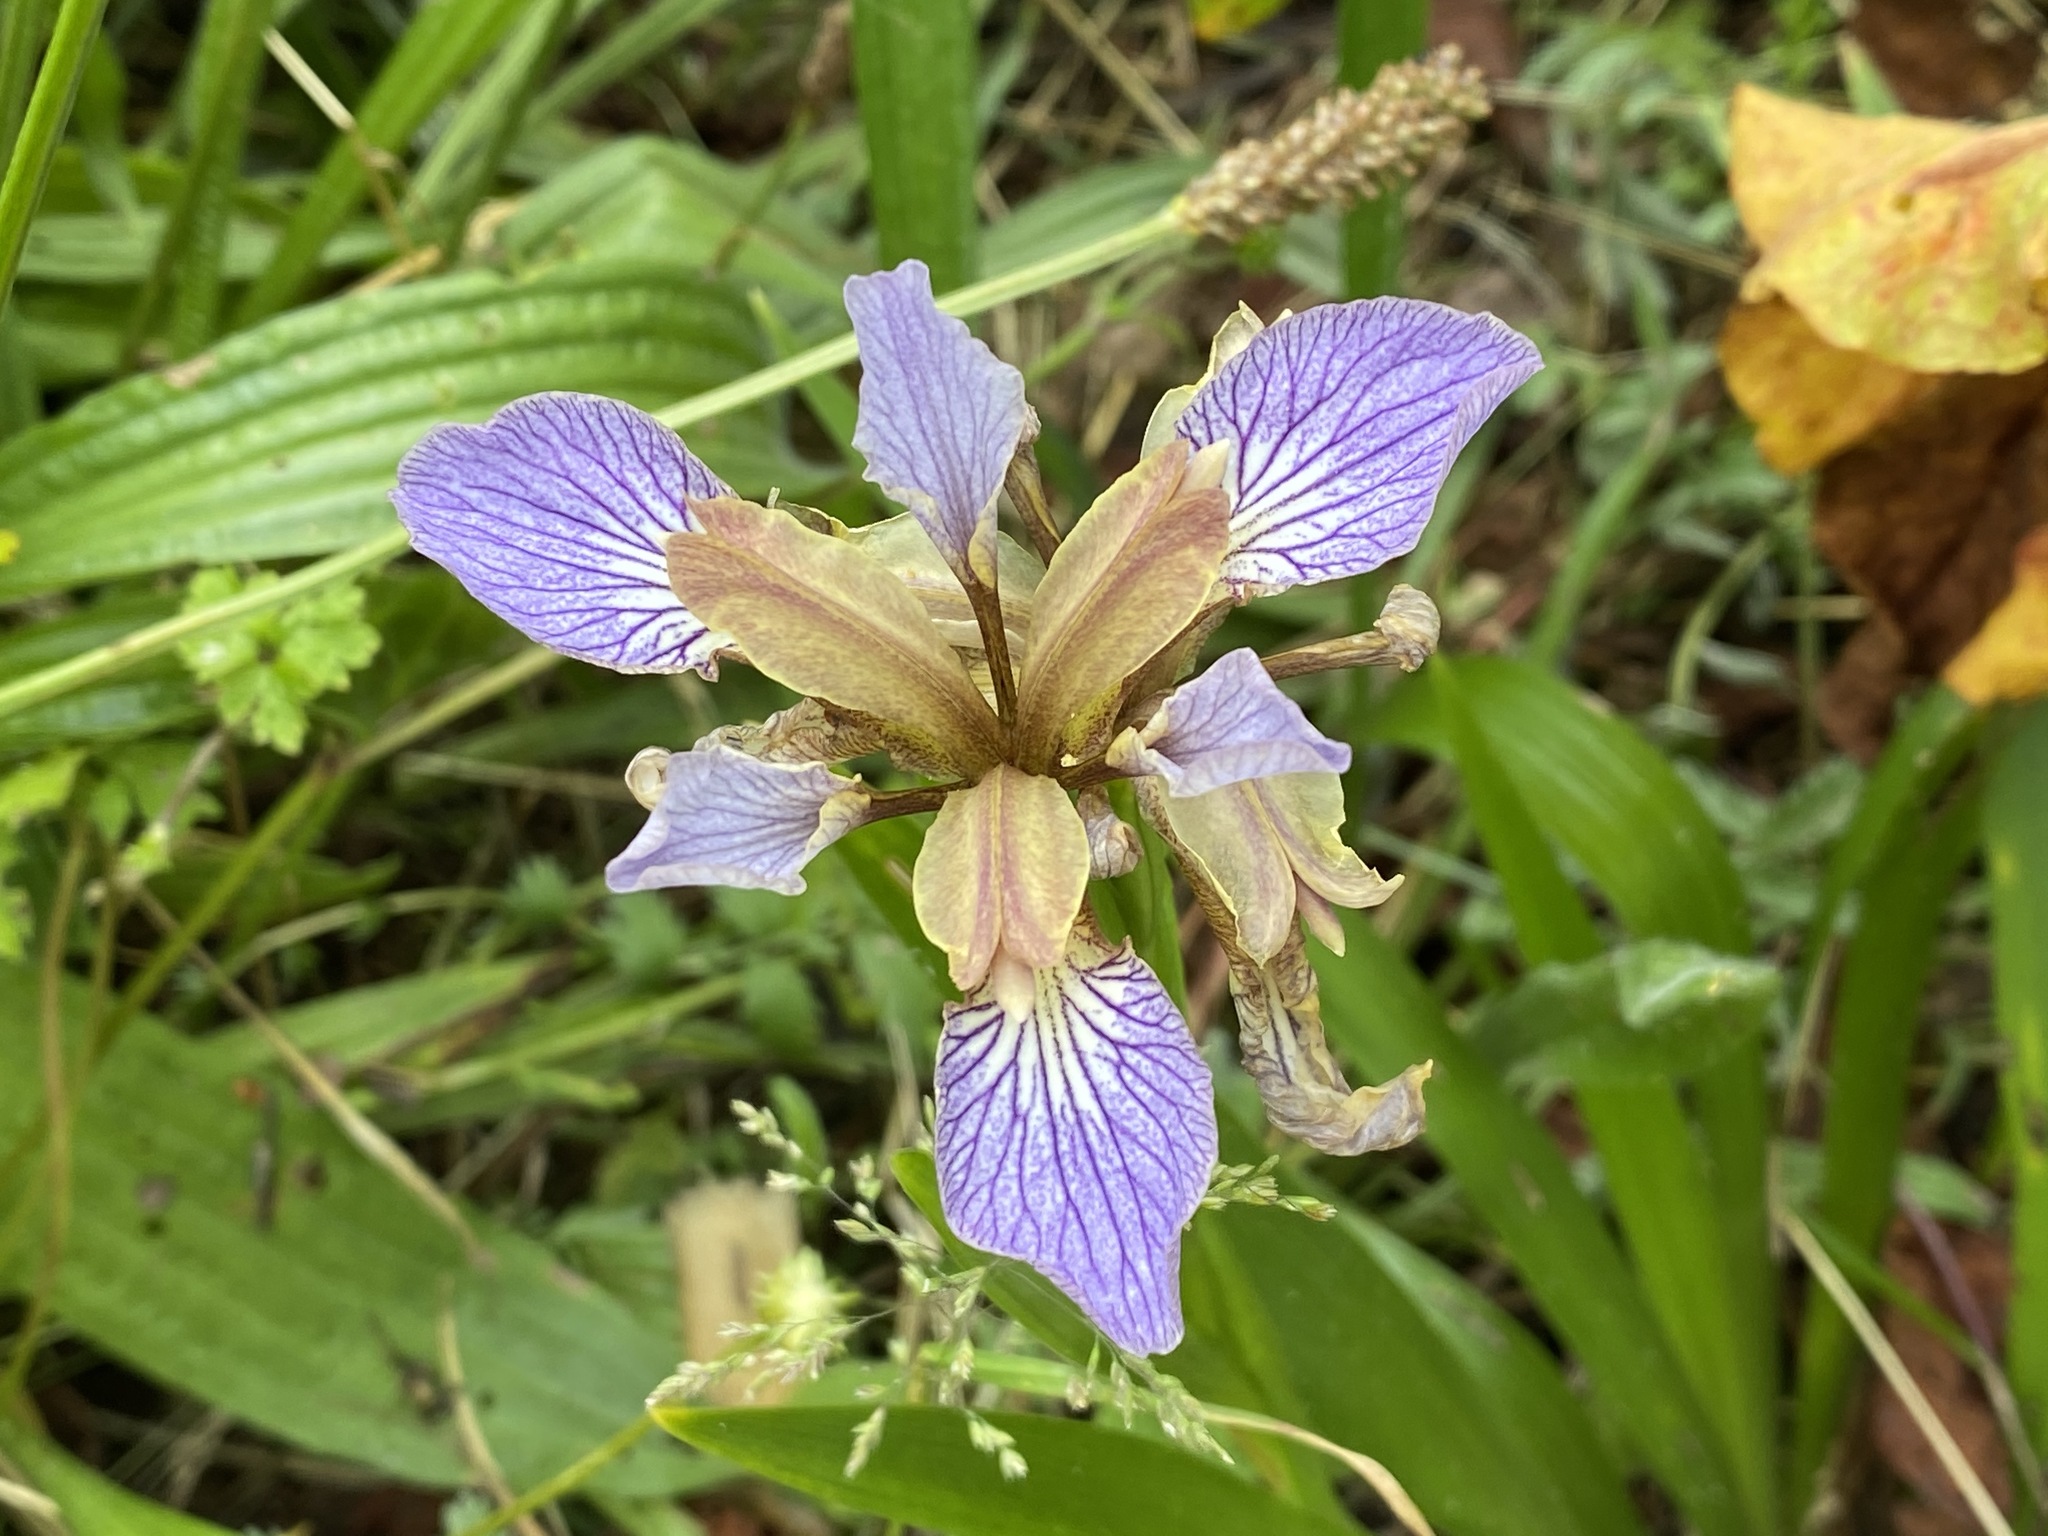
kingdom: Plantae
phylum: Tracheophyta
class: Liliopsida
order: Asparagales
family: Iridaceae
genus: Iris
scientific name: Iris foetidissima
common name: Stinking iris
